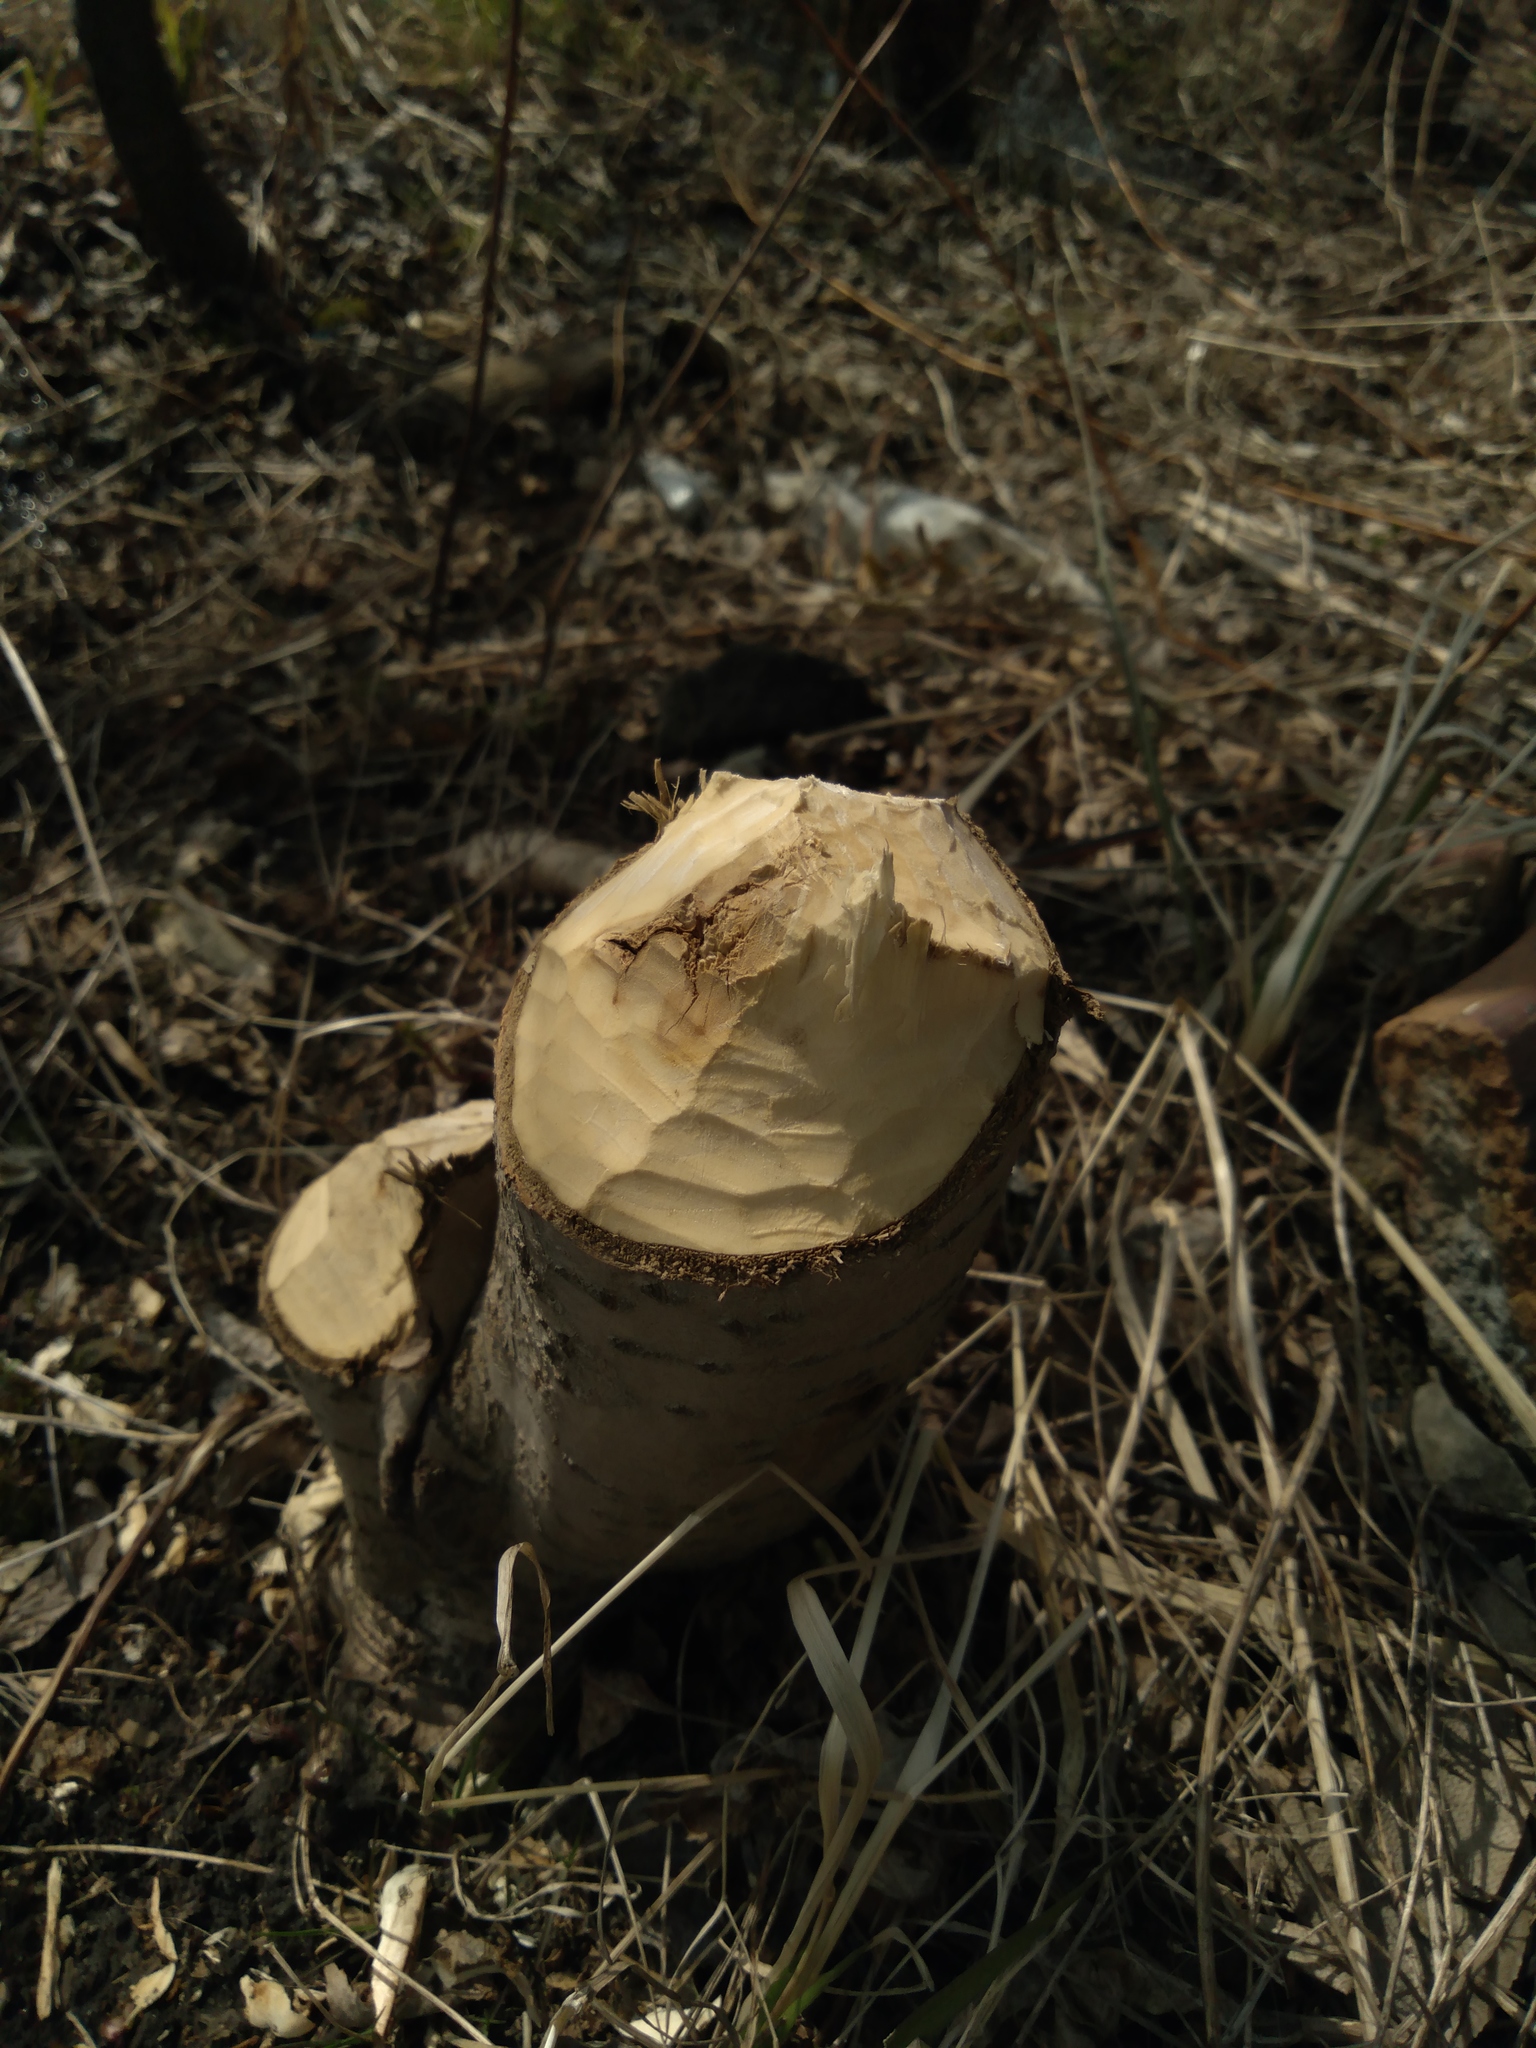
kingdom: Animalia
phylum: Chordata
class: Mammalia
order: Rodentia
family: Castoridae
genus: Castor
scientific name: Castor fiber
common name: Eurasian beaver
